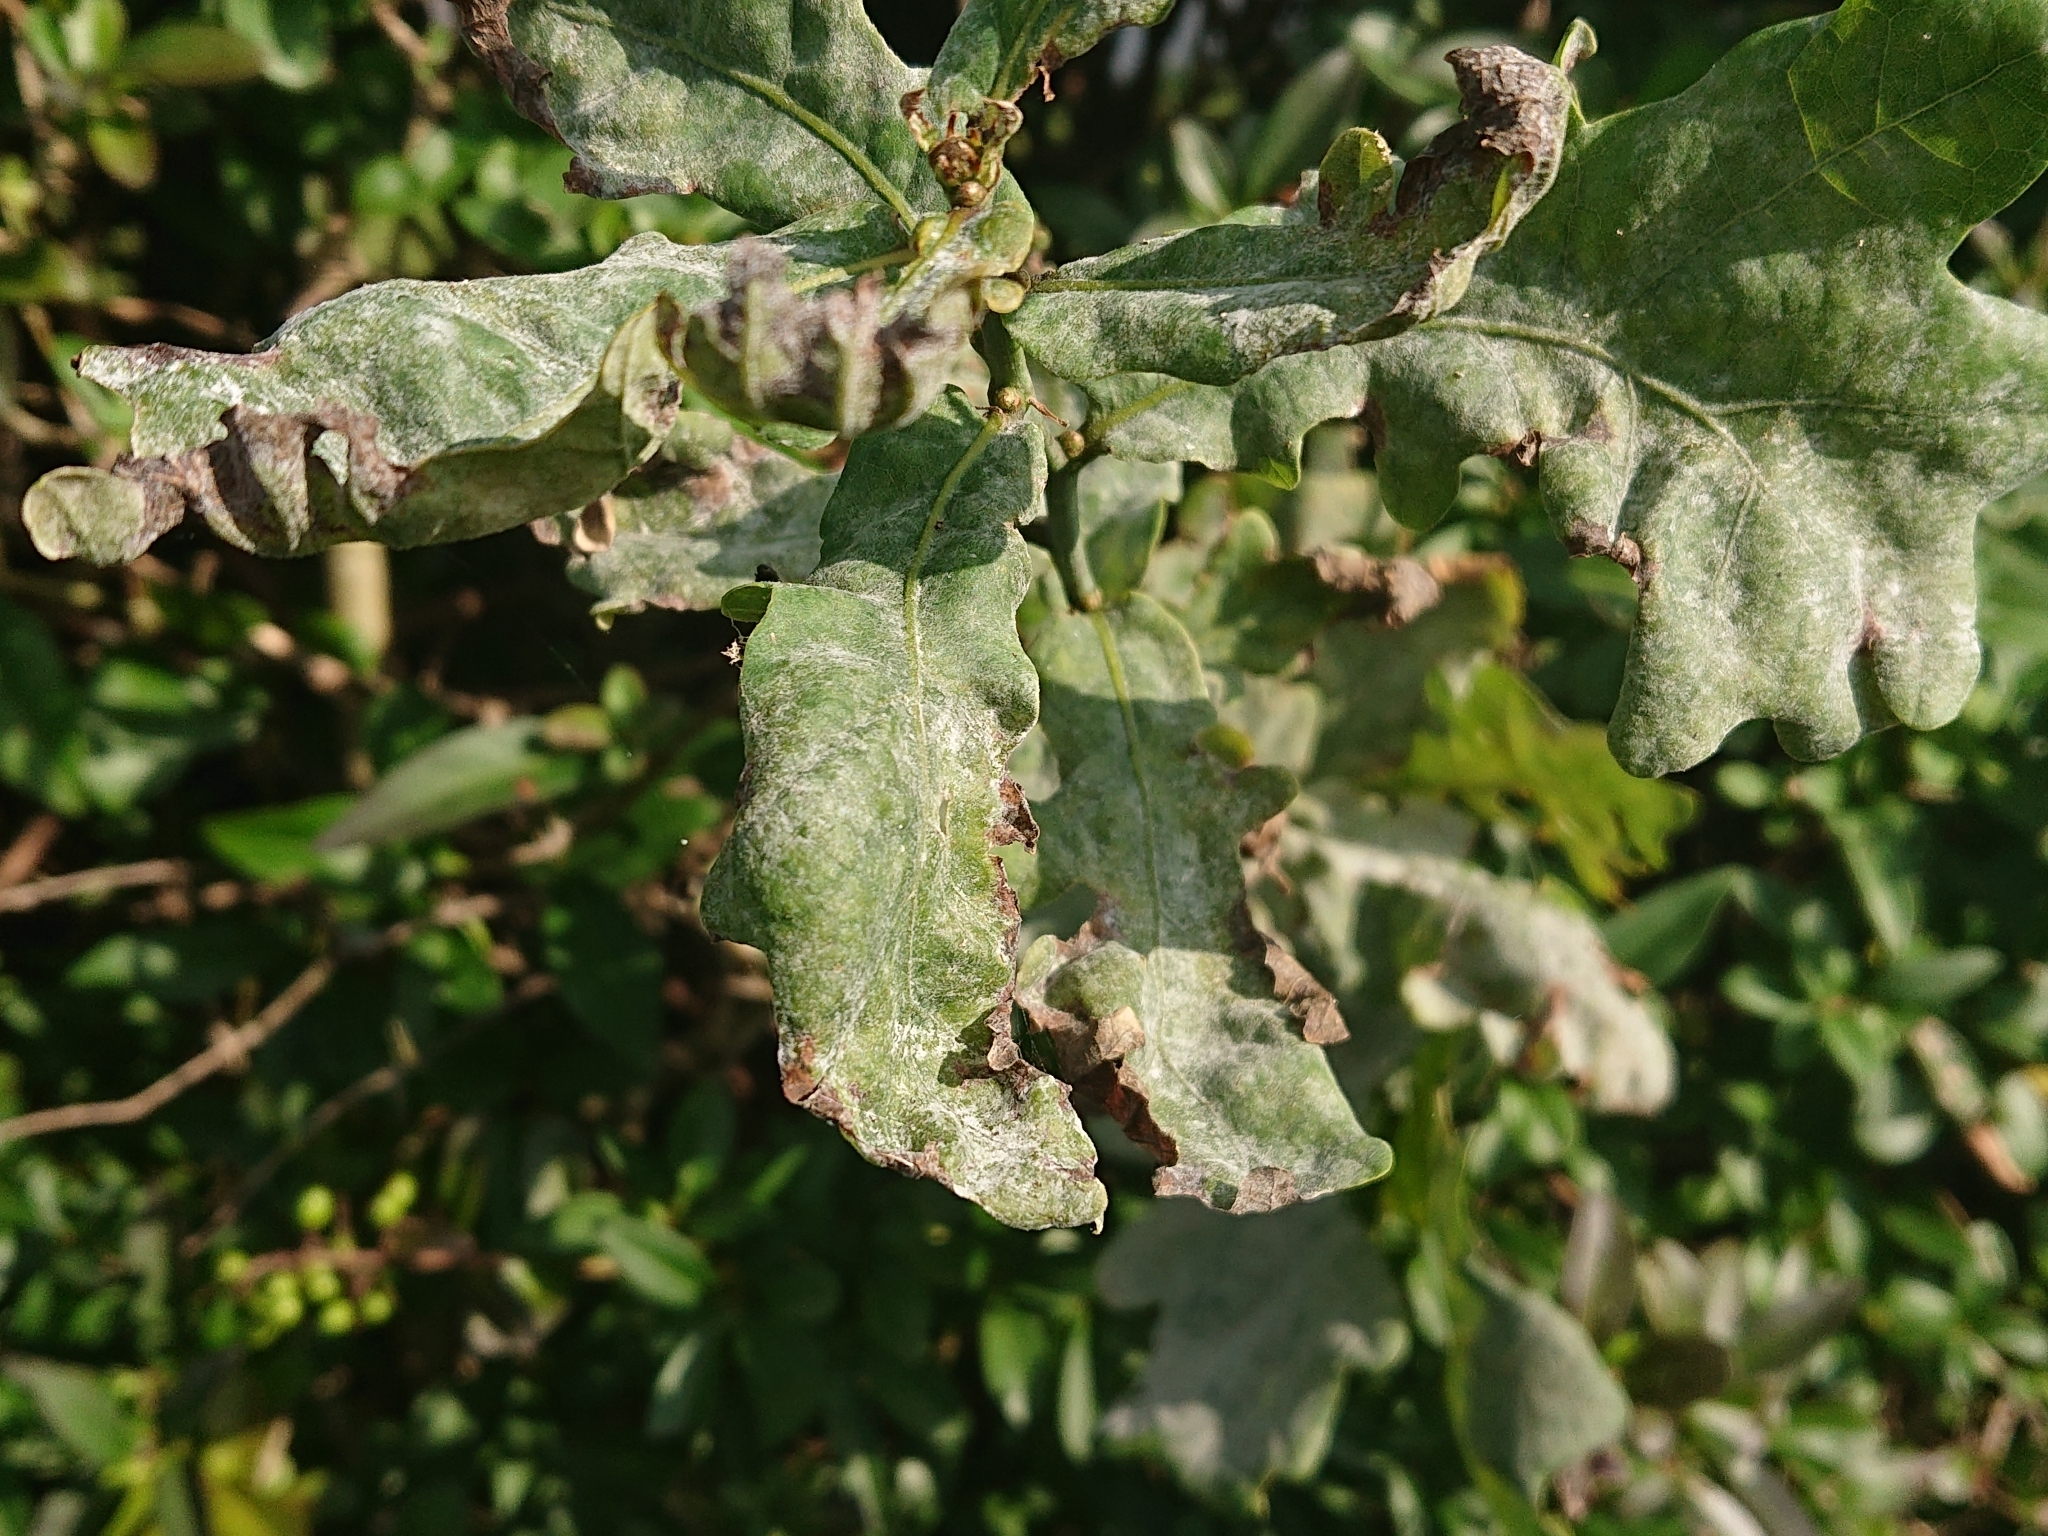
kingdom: Fungi
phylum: Ascomycota
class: Leotiomycetes
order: Helotiales
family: Erysiphaceae
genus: Erysiphe
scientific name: Erysiphe alphitoides
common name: Oak mildew
